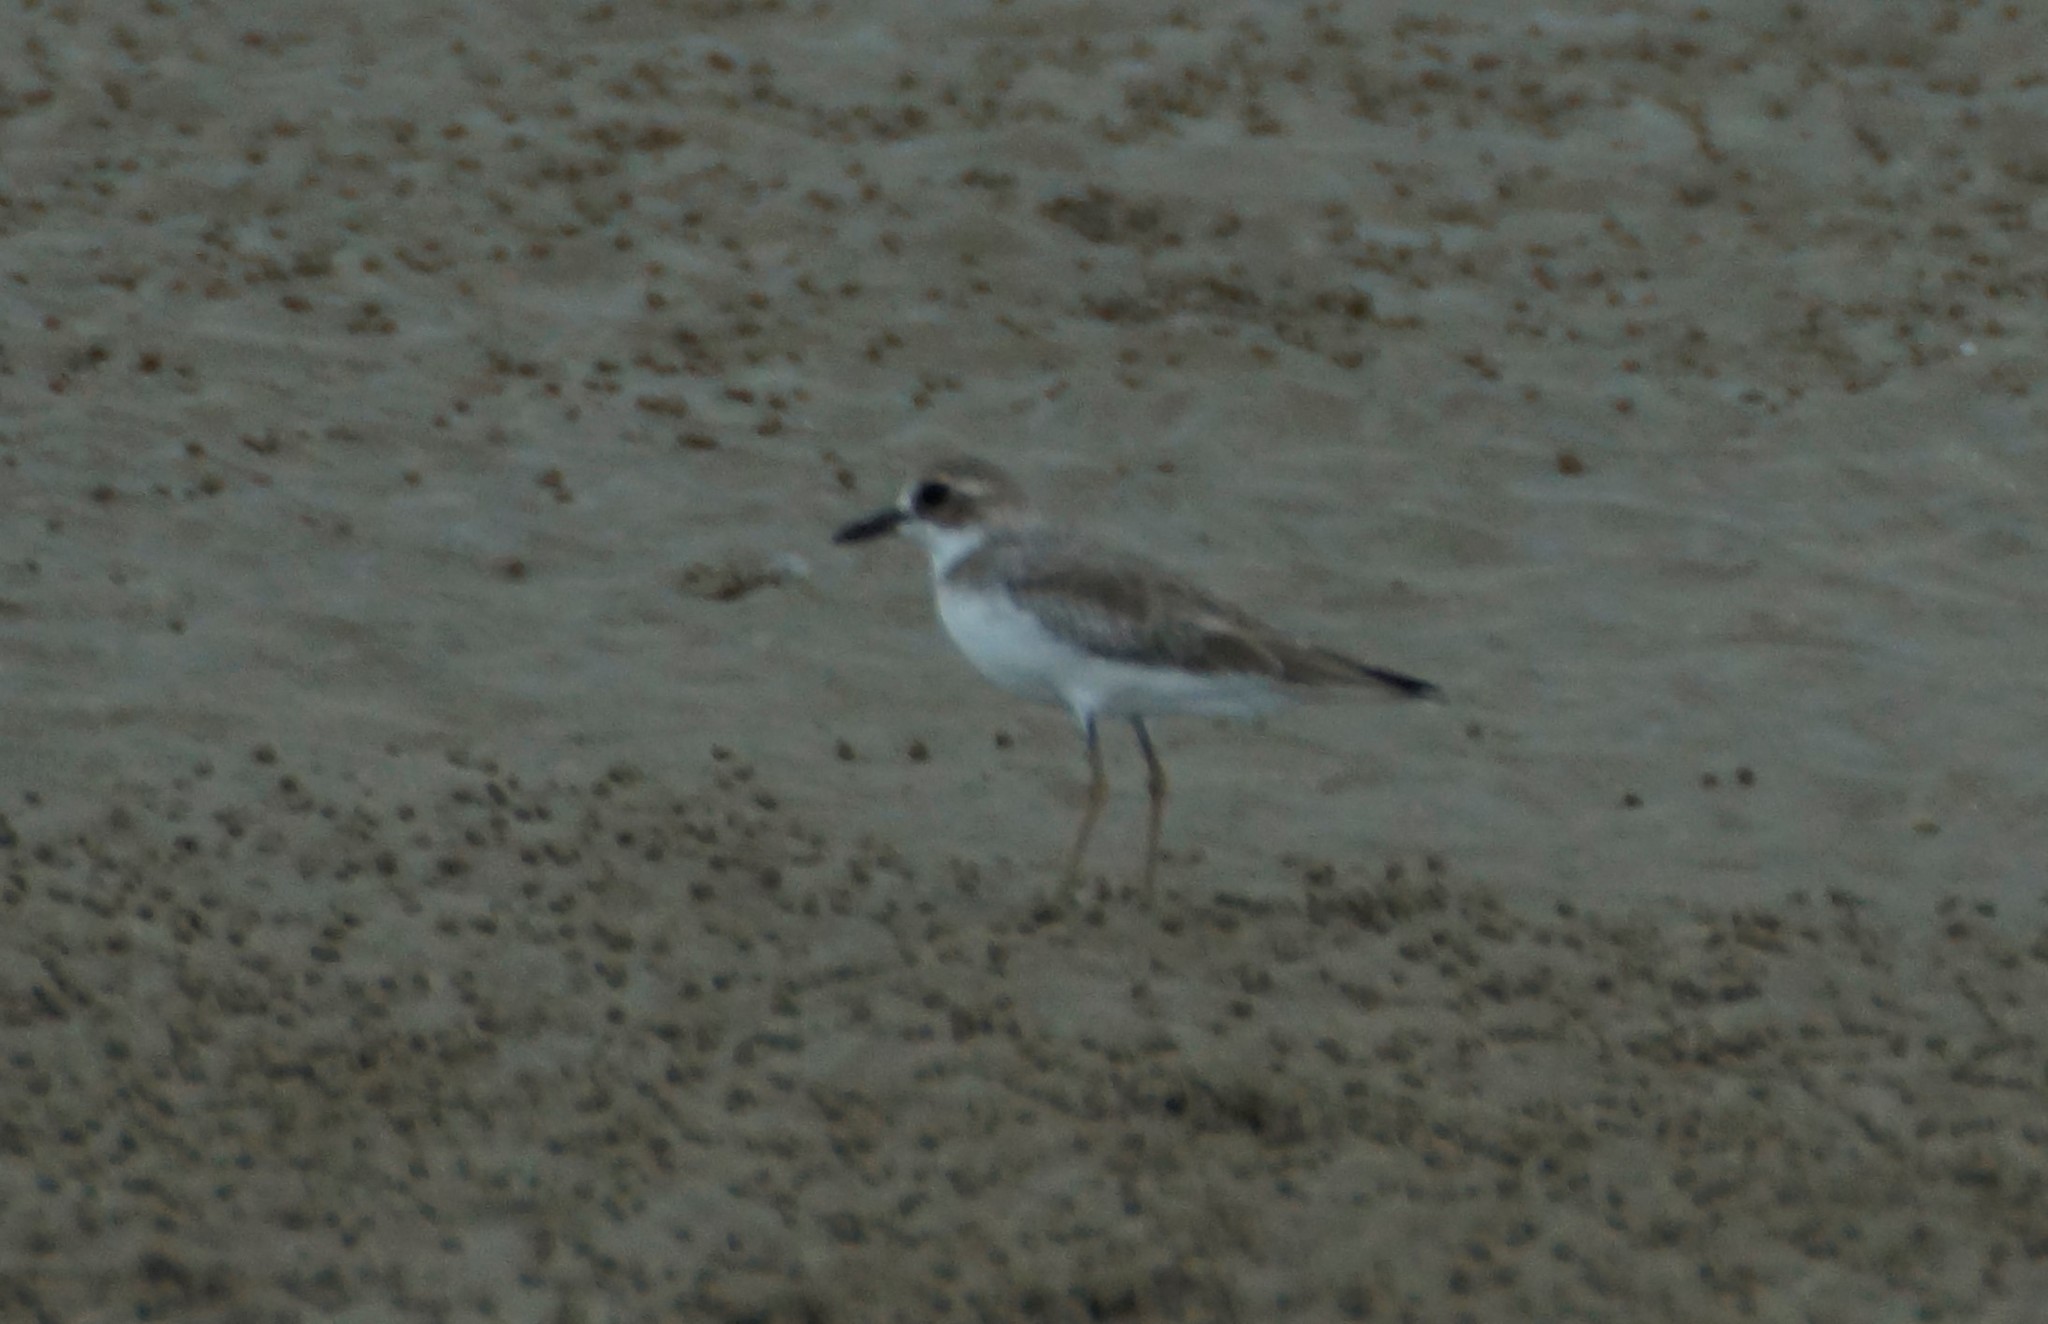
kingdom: Animalia
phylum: Chordata
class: Aves
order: Charadriiformes
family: Charadriidae
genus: Charadrius
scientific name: Charadrius leschenaultii
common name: Greater sand plover
